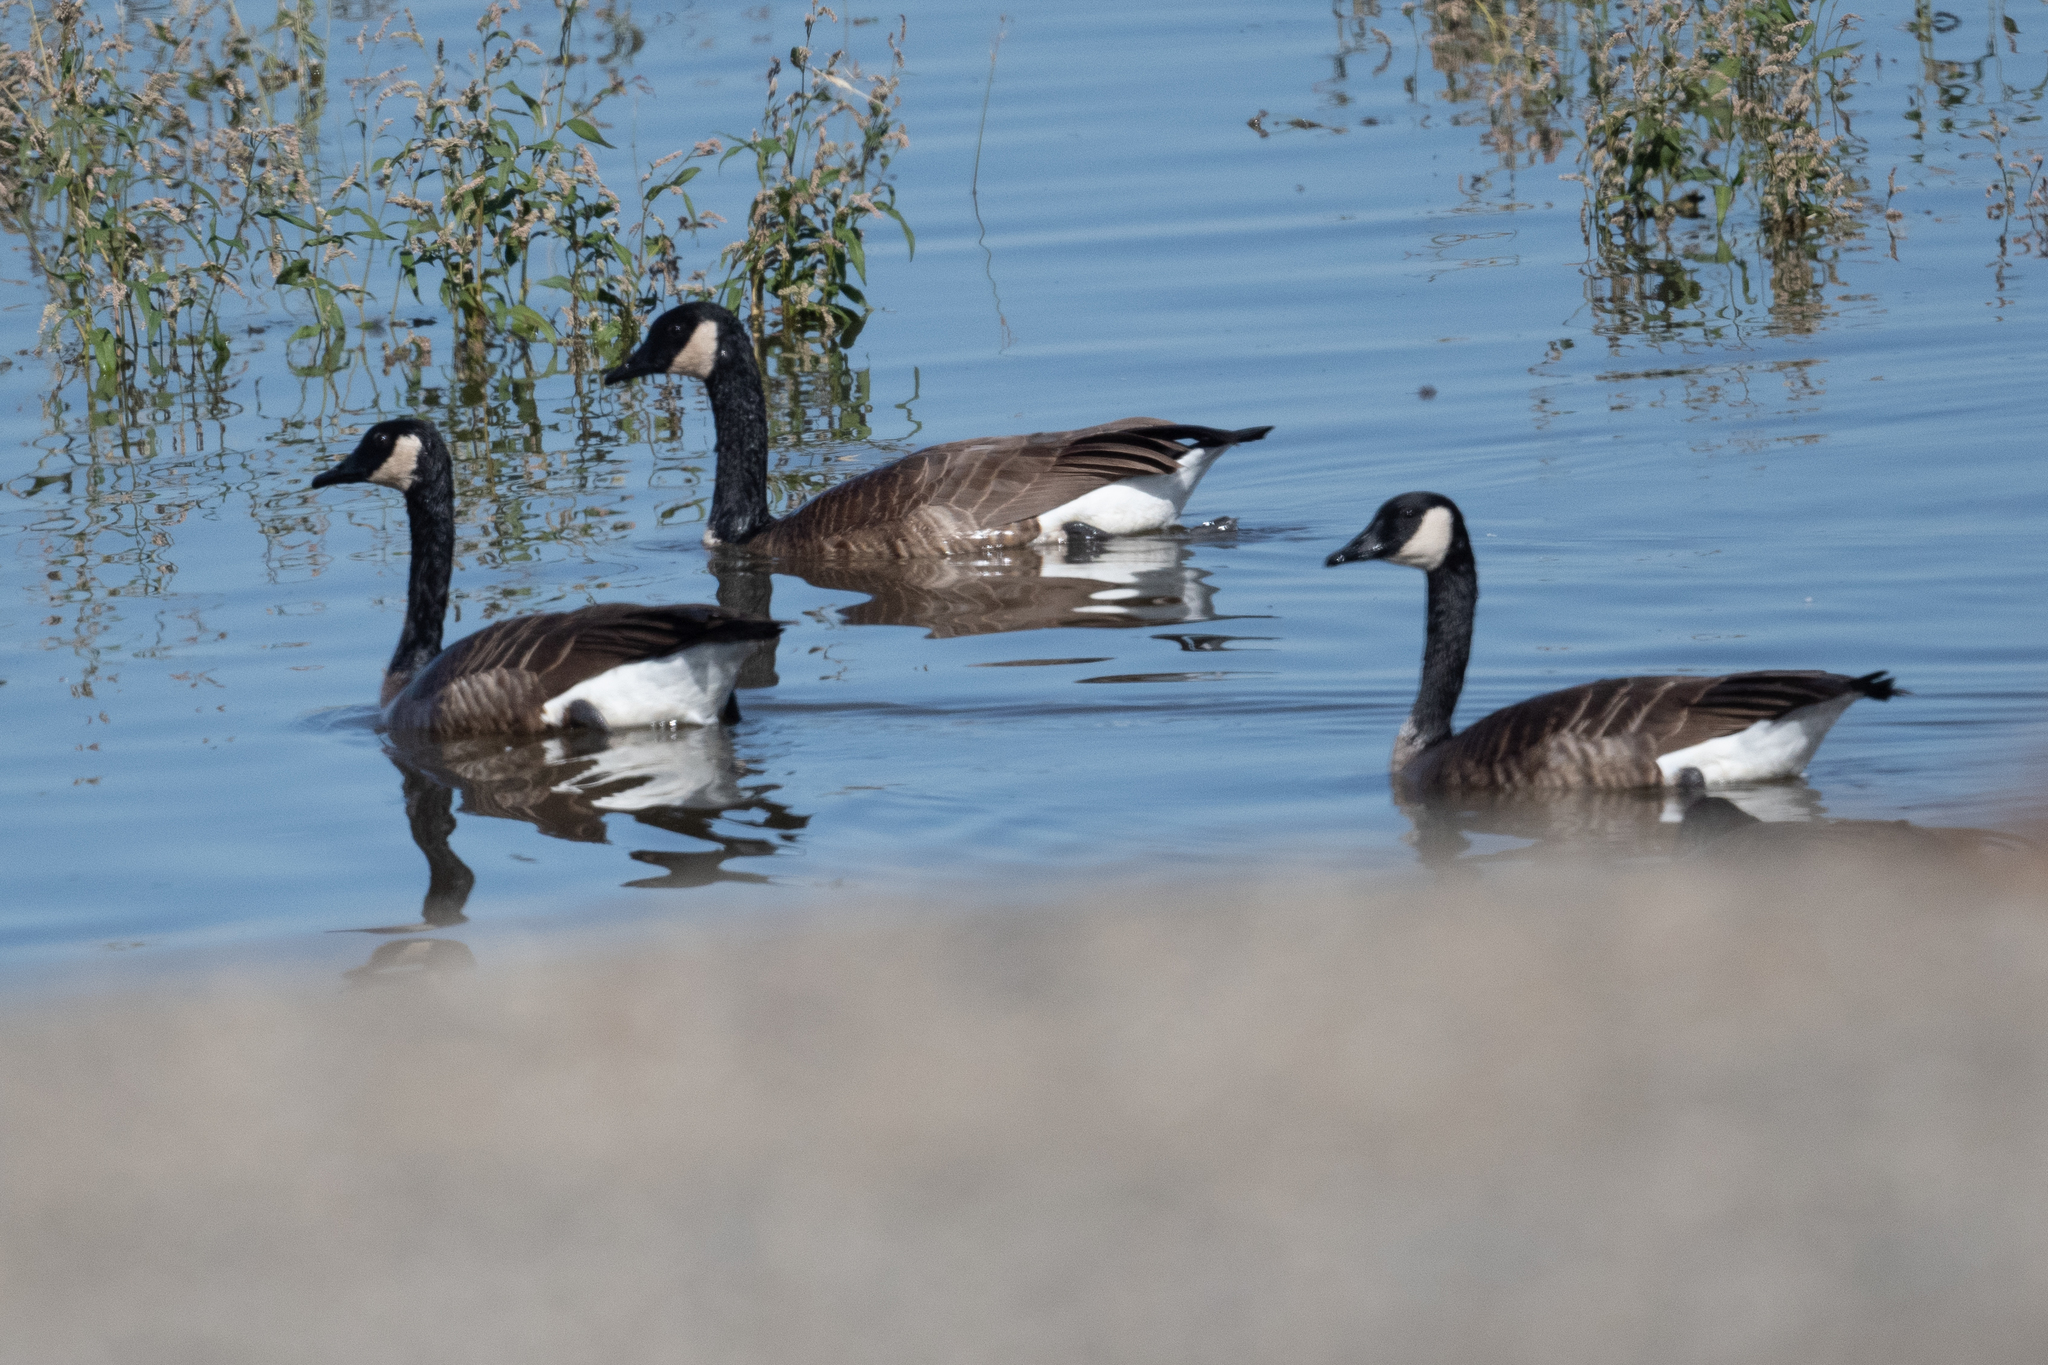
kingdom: Animalia
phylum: Chordata
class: Aves
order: Anseriformes
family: Anatidae
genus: Branta
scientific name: Branta canadensis
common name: Canada goose
